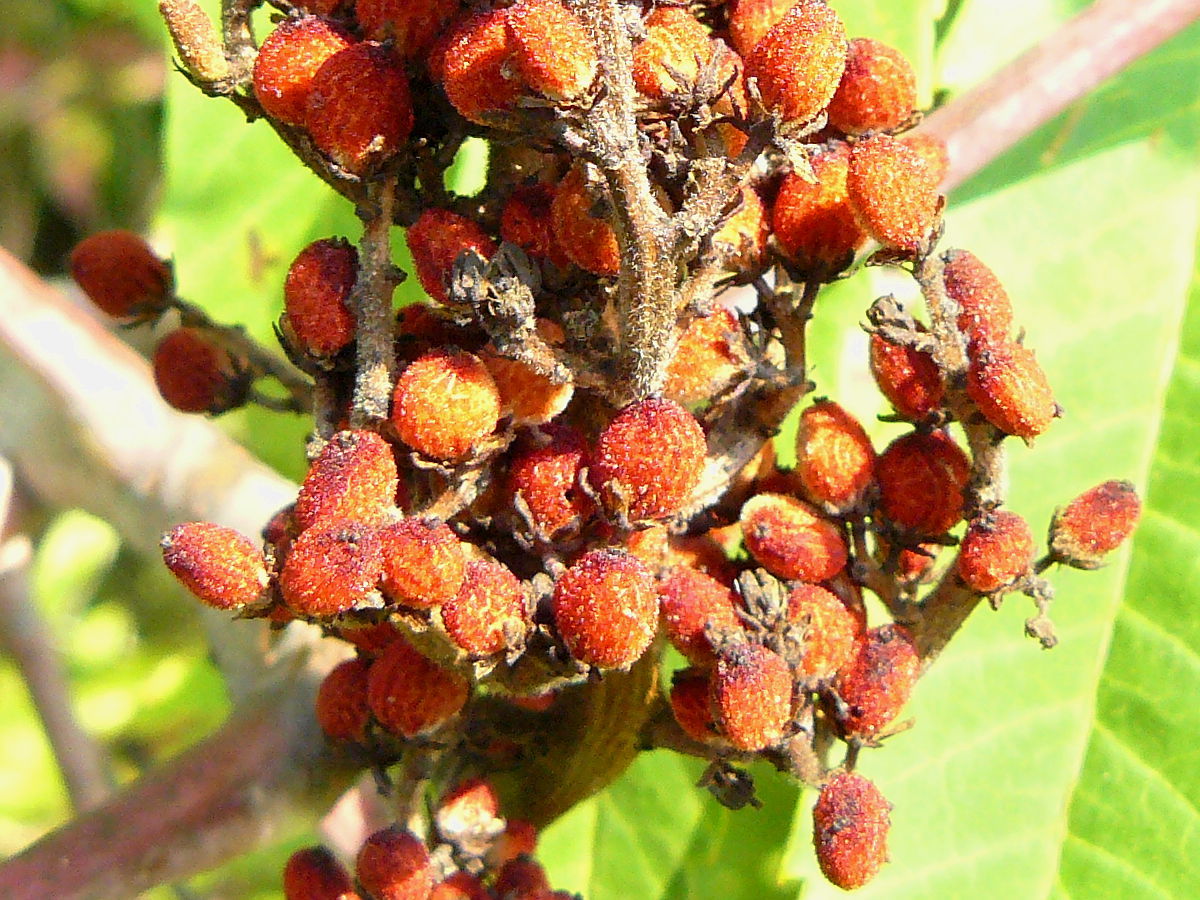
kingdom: Plantae
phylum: Tracheophyta
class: Magnoliopsida
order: Sapindales
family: Anacardiaceae
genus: Rhus
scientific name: Rhus glabra
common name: Scarlet sumac
